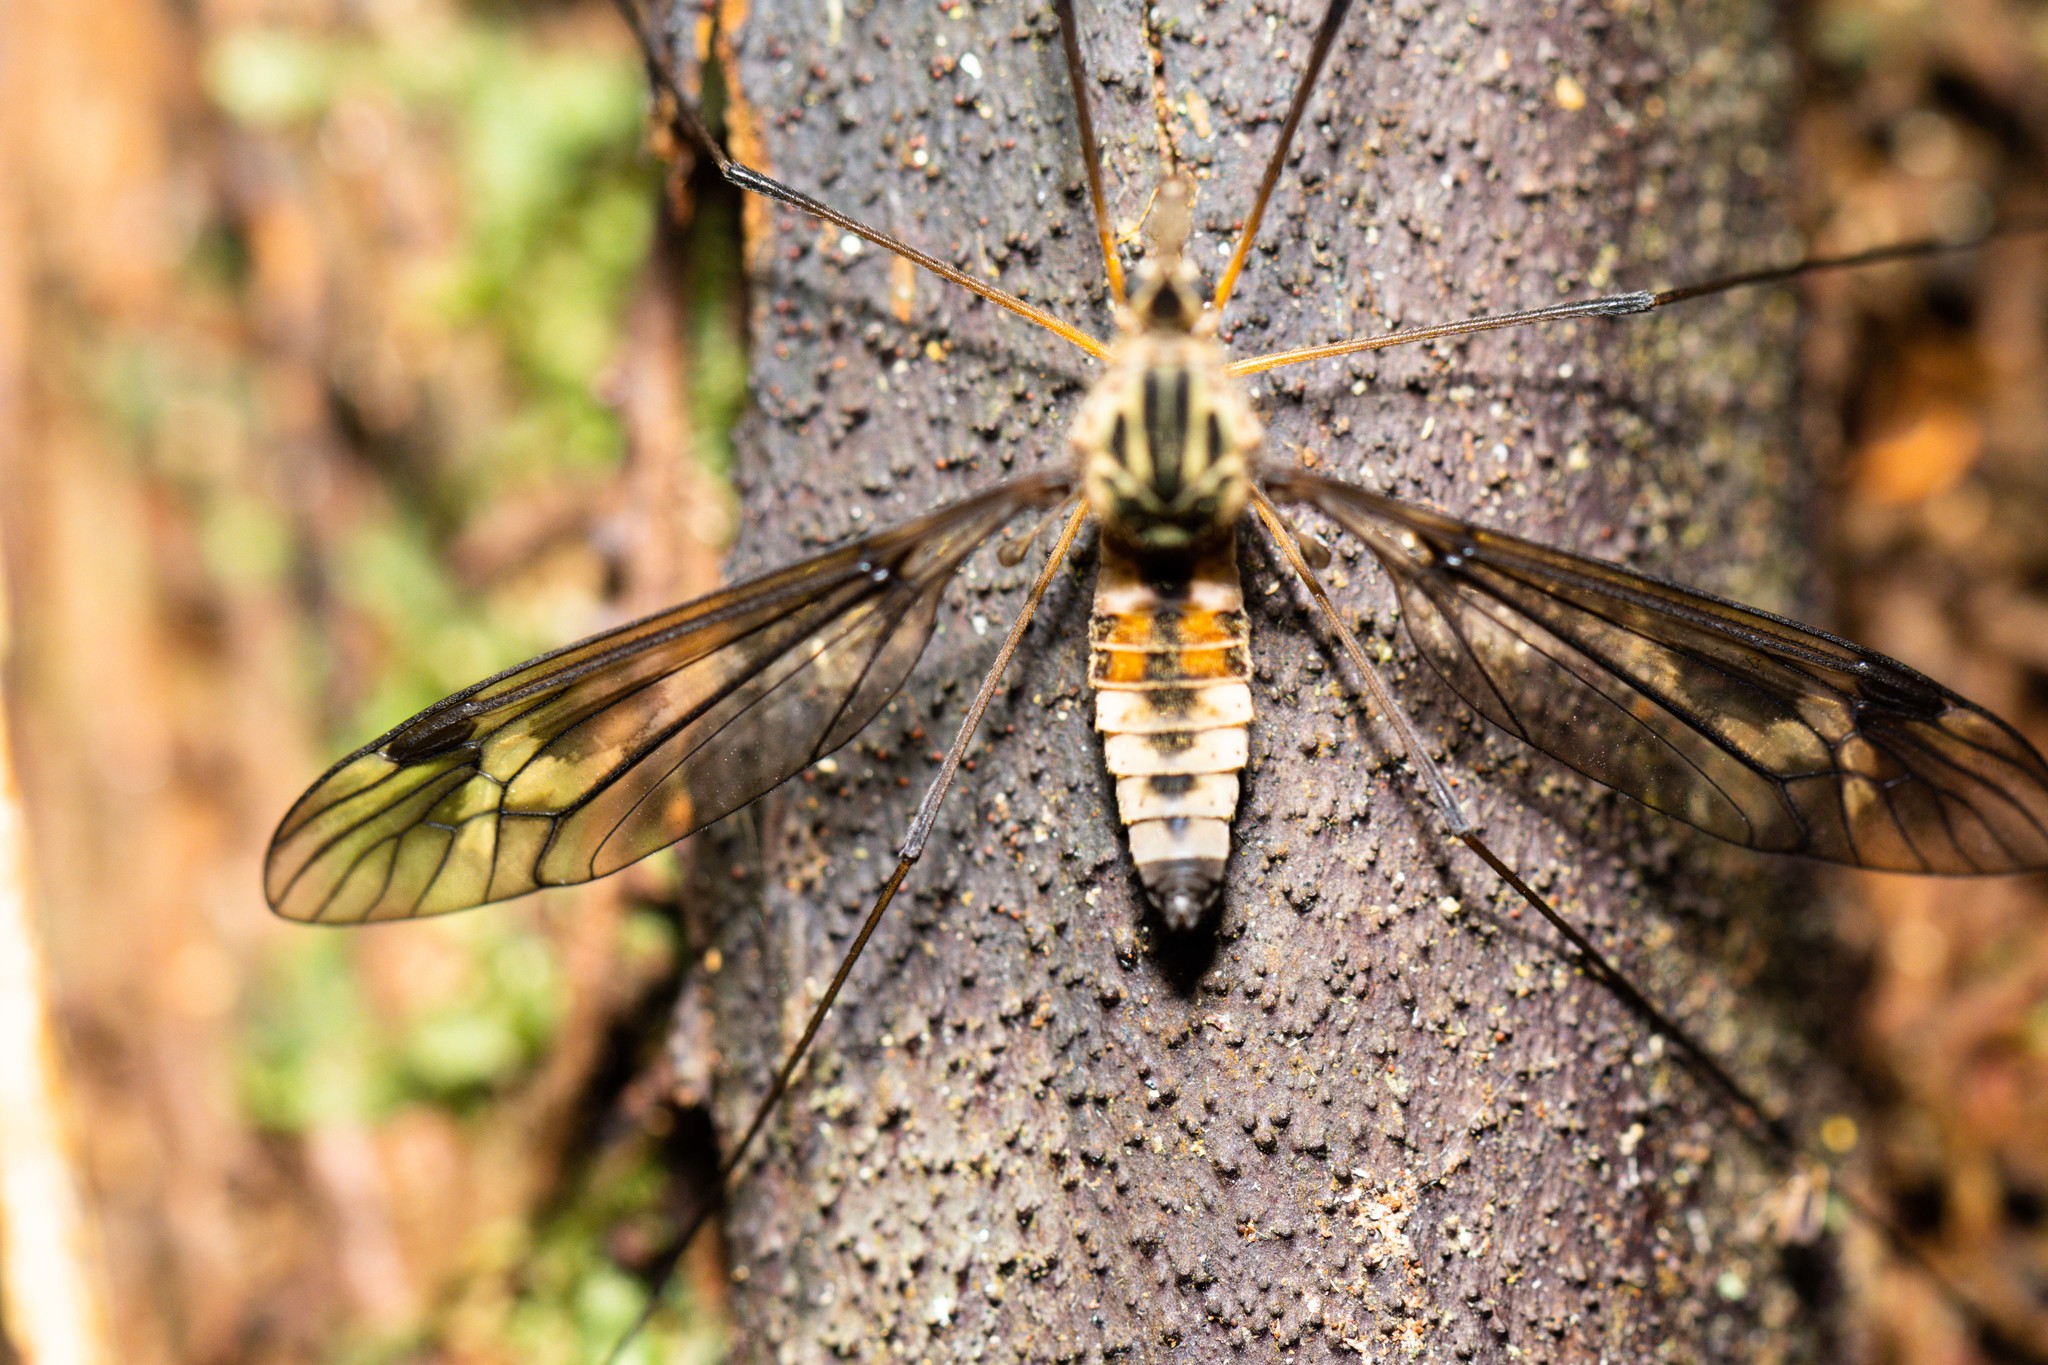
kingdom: Animalia
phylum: Arthropoda
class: Insecta
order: Diptera
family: Tipulidae
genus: Leptotarsus
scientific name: Leptotarsus lunatus
